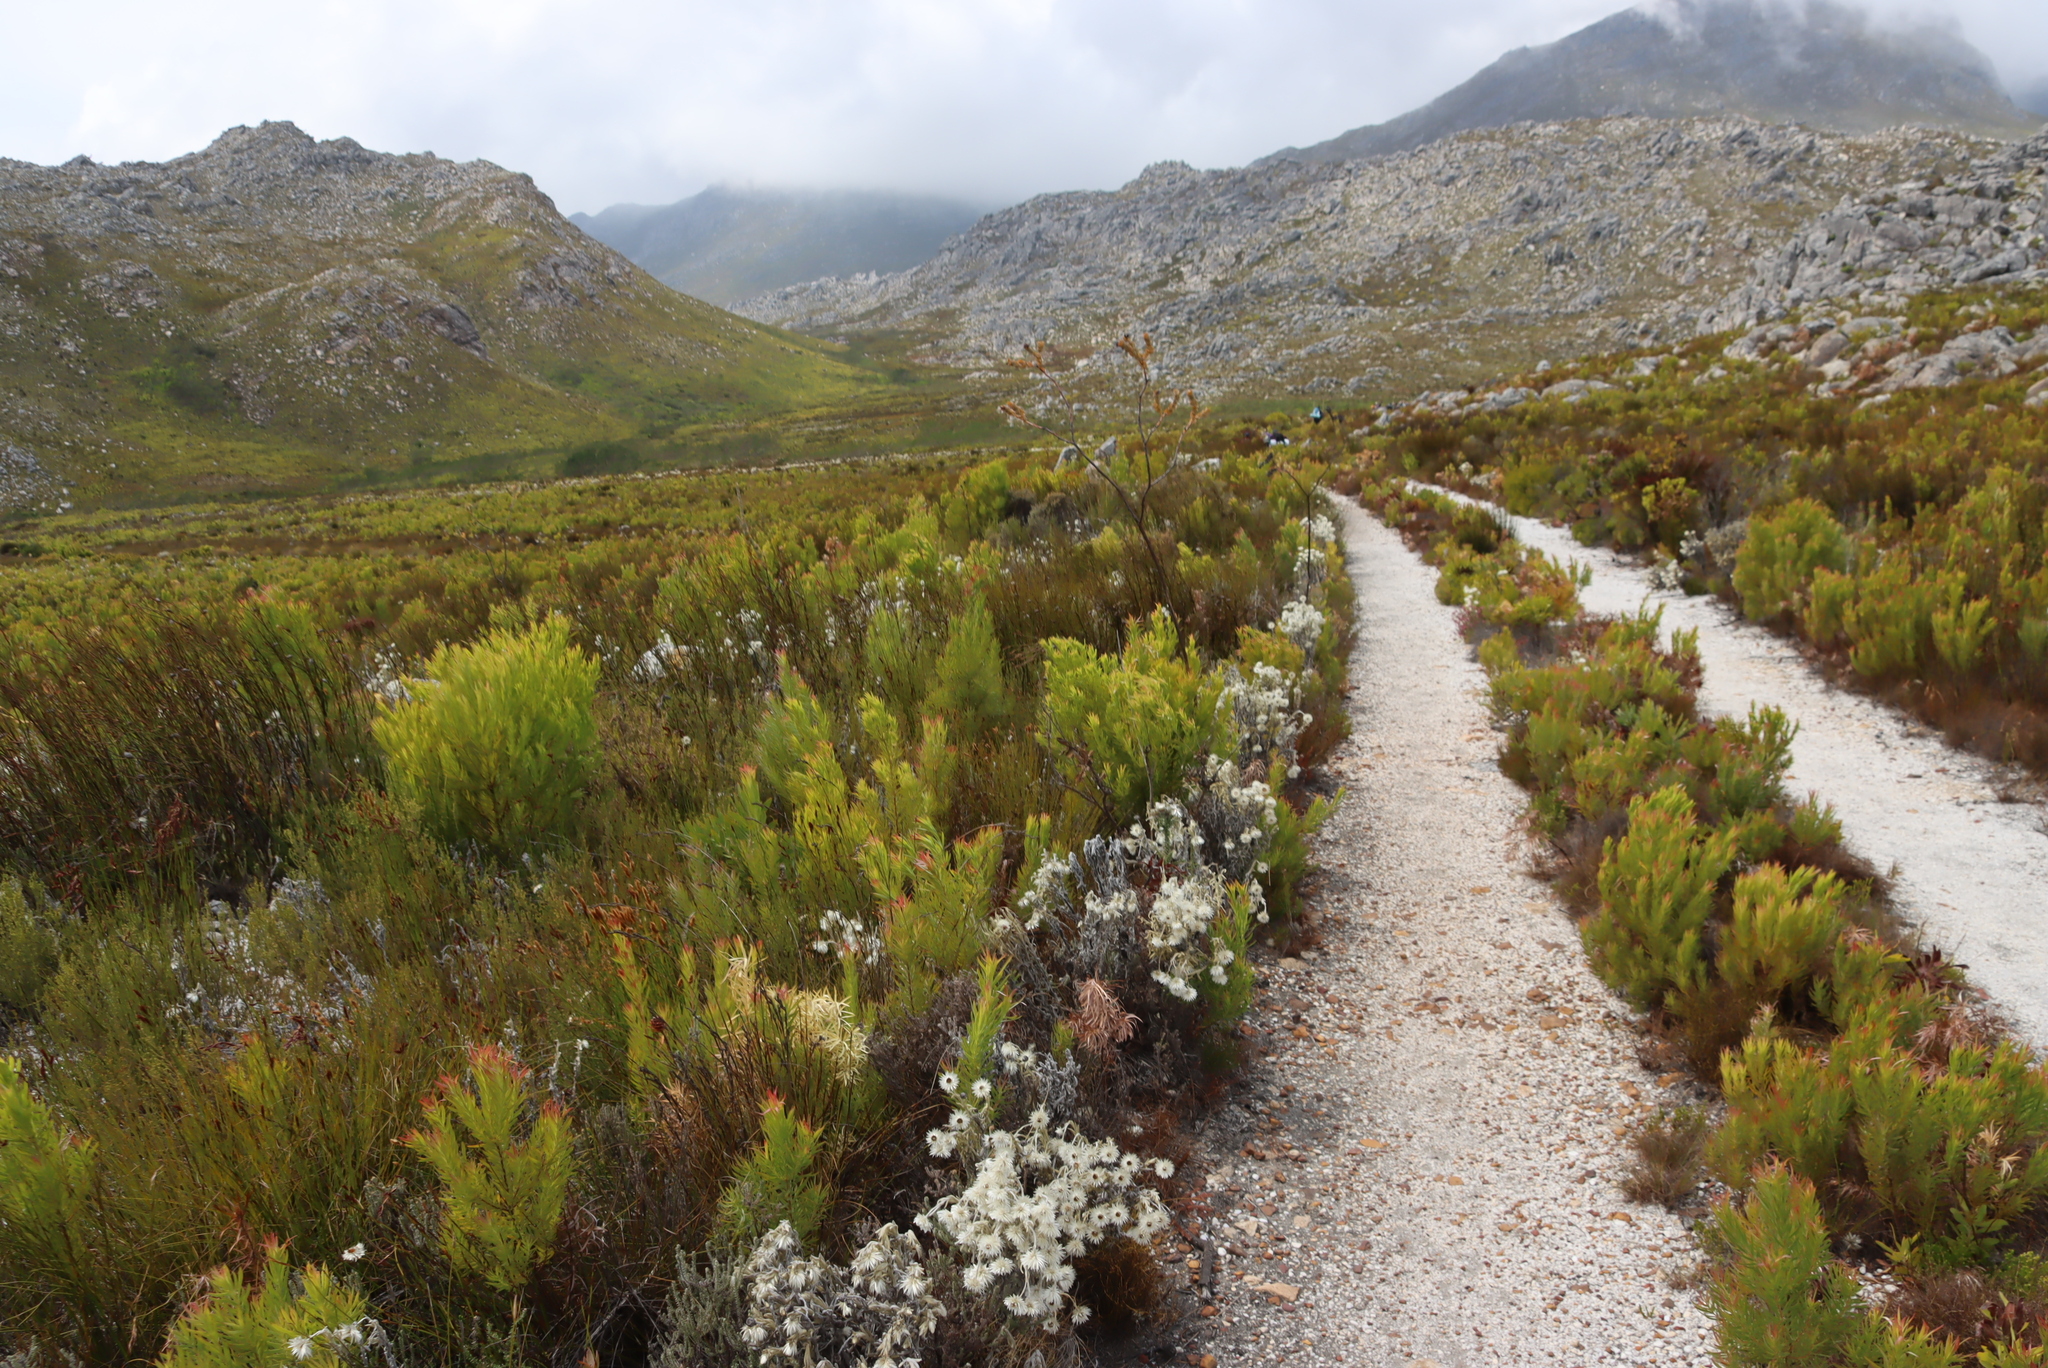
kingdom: Plantae
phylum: Tracheophyta
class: Magnoliopsida
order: Asterales
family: Asteraceae
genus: Syncarpha
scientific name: Syncarpha vestita
